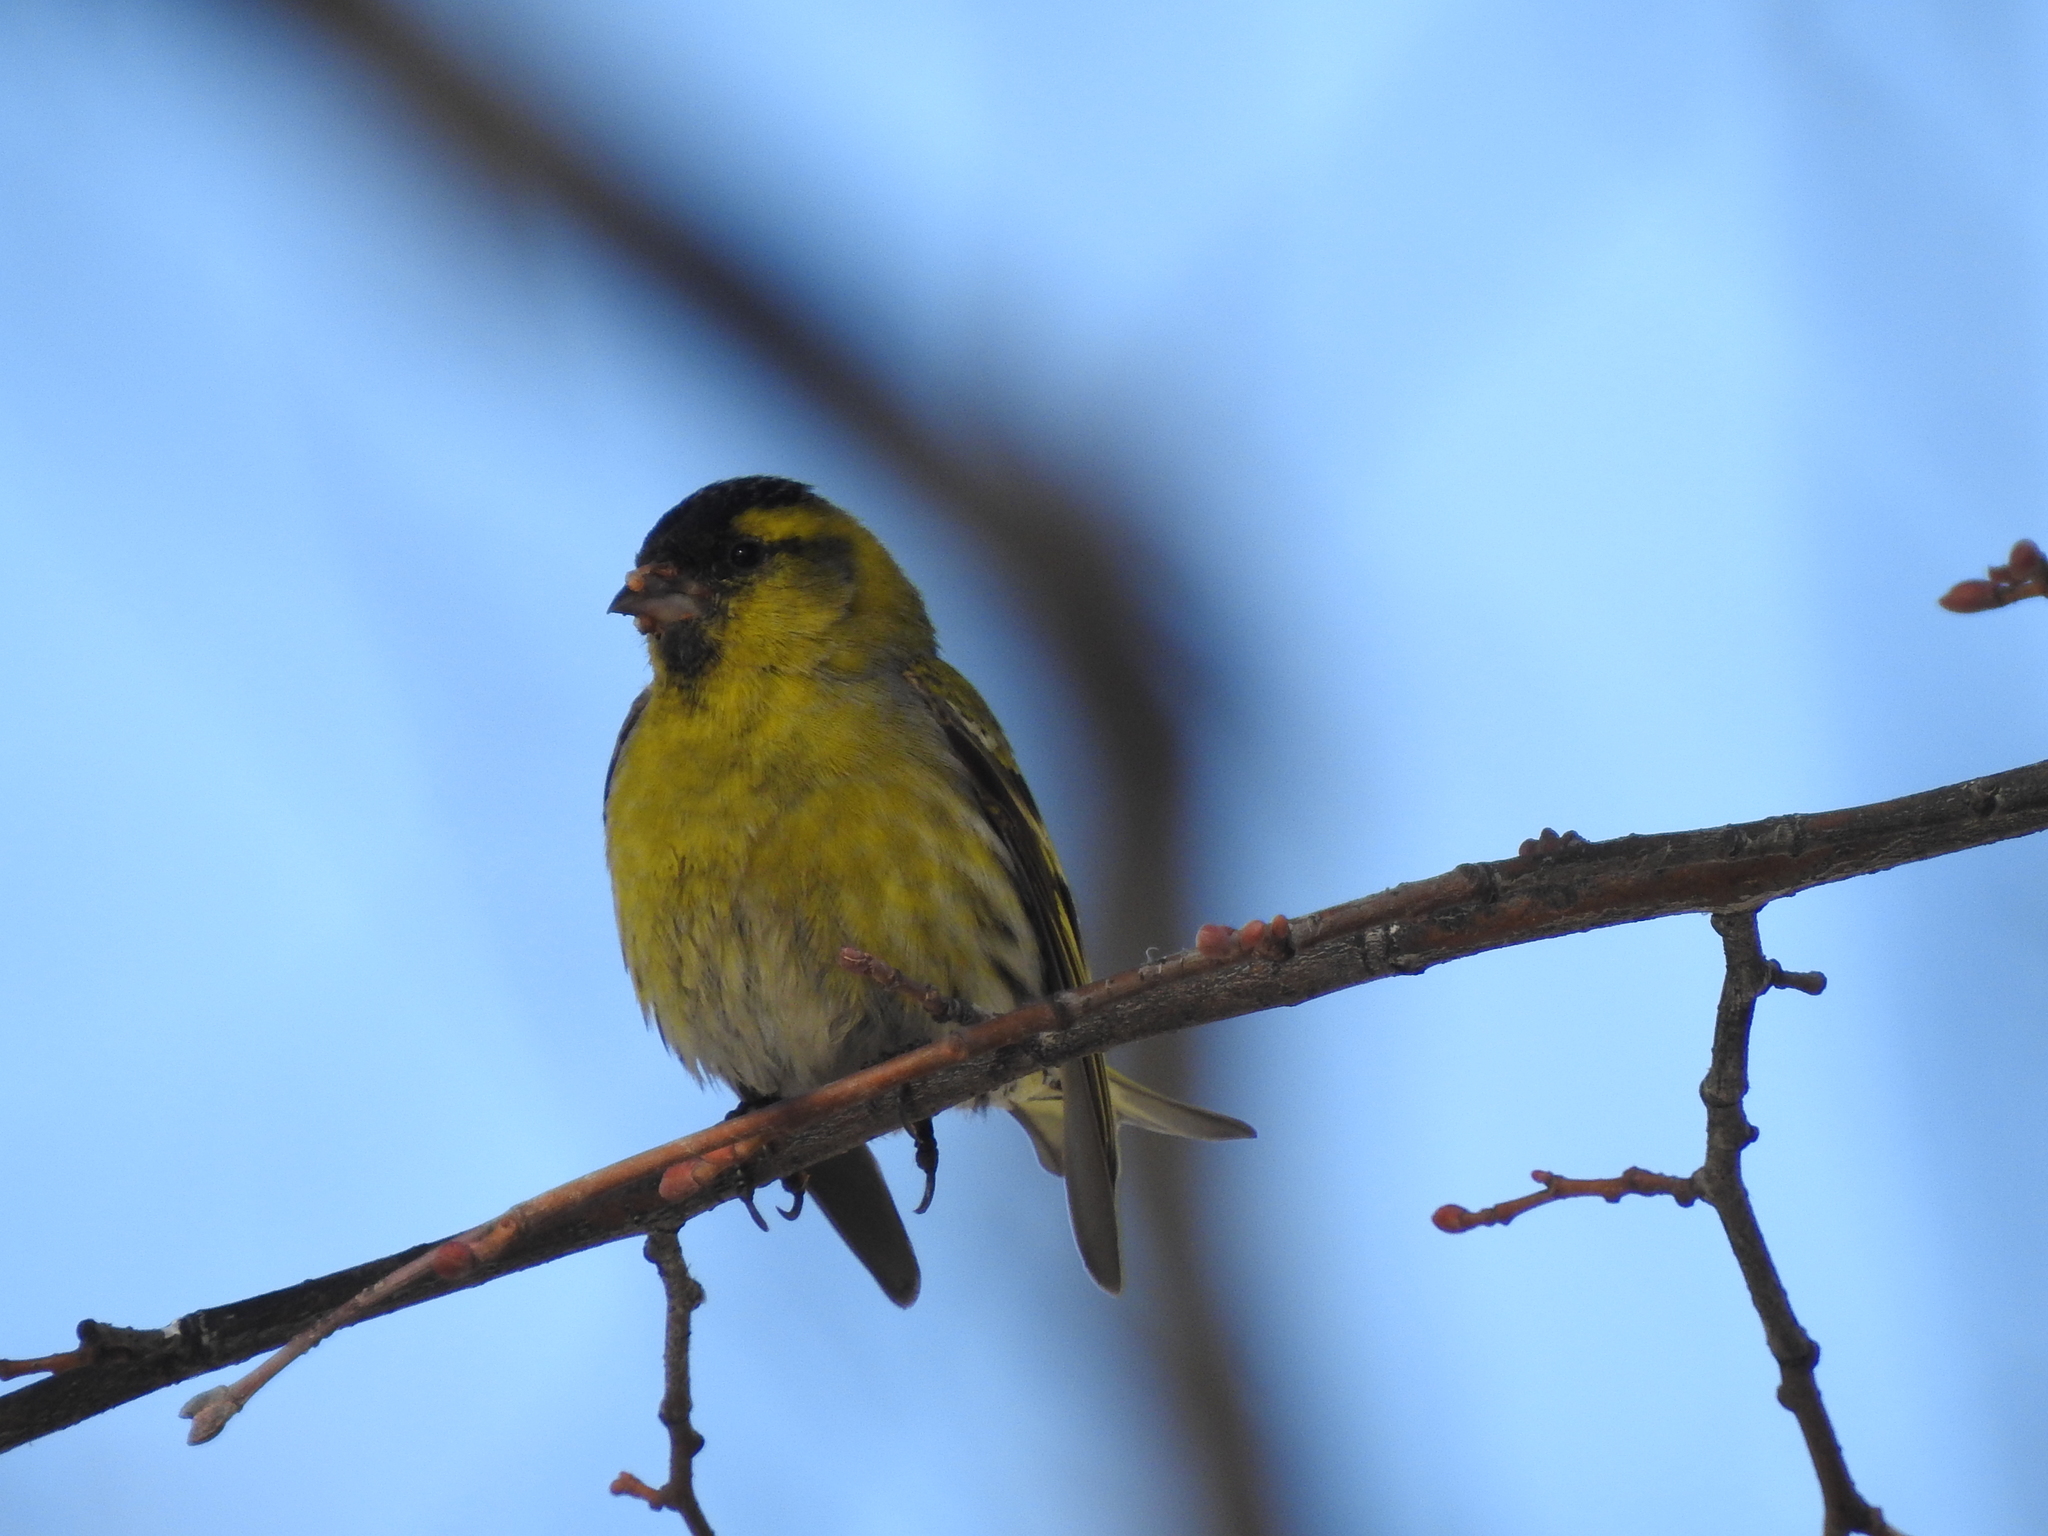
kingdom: Animalia
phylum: Chordata
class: Aves
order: Passeriformes
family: Fringillidae
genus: Spinus
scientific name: Spinus spinus
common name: Eurasian siskin
